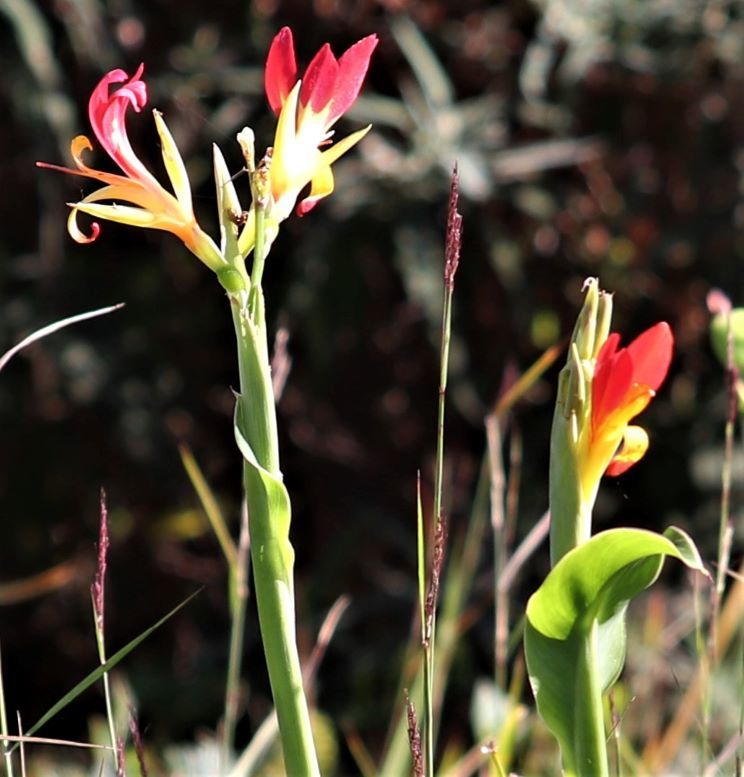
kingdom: Plantae
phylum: Tracheophyta
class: Liliopsida
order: Zingiberales
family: Cannaceae
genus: Canna
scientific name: Canna indica
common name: Indian shot
